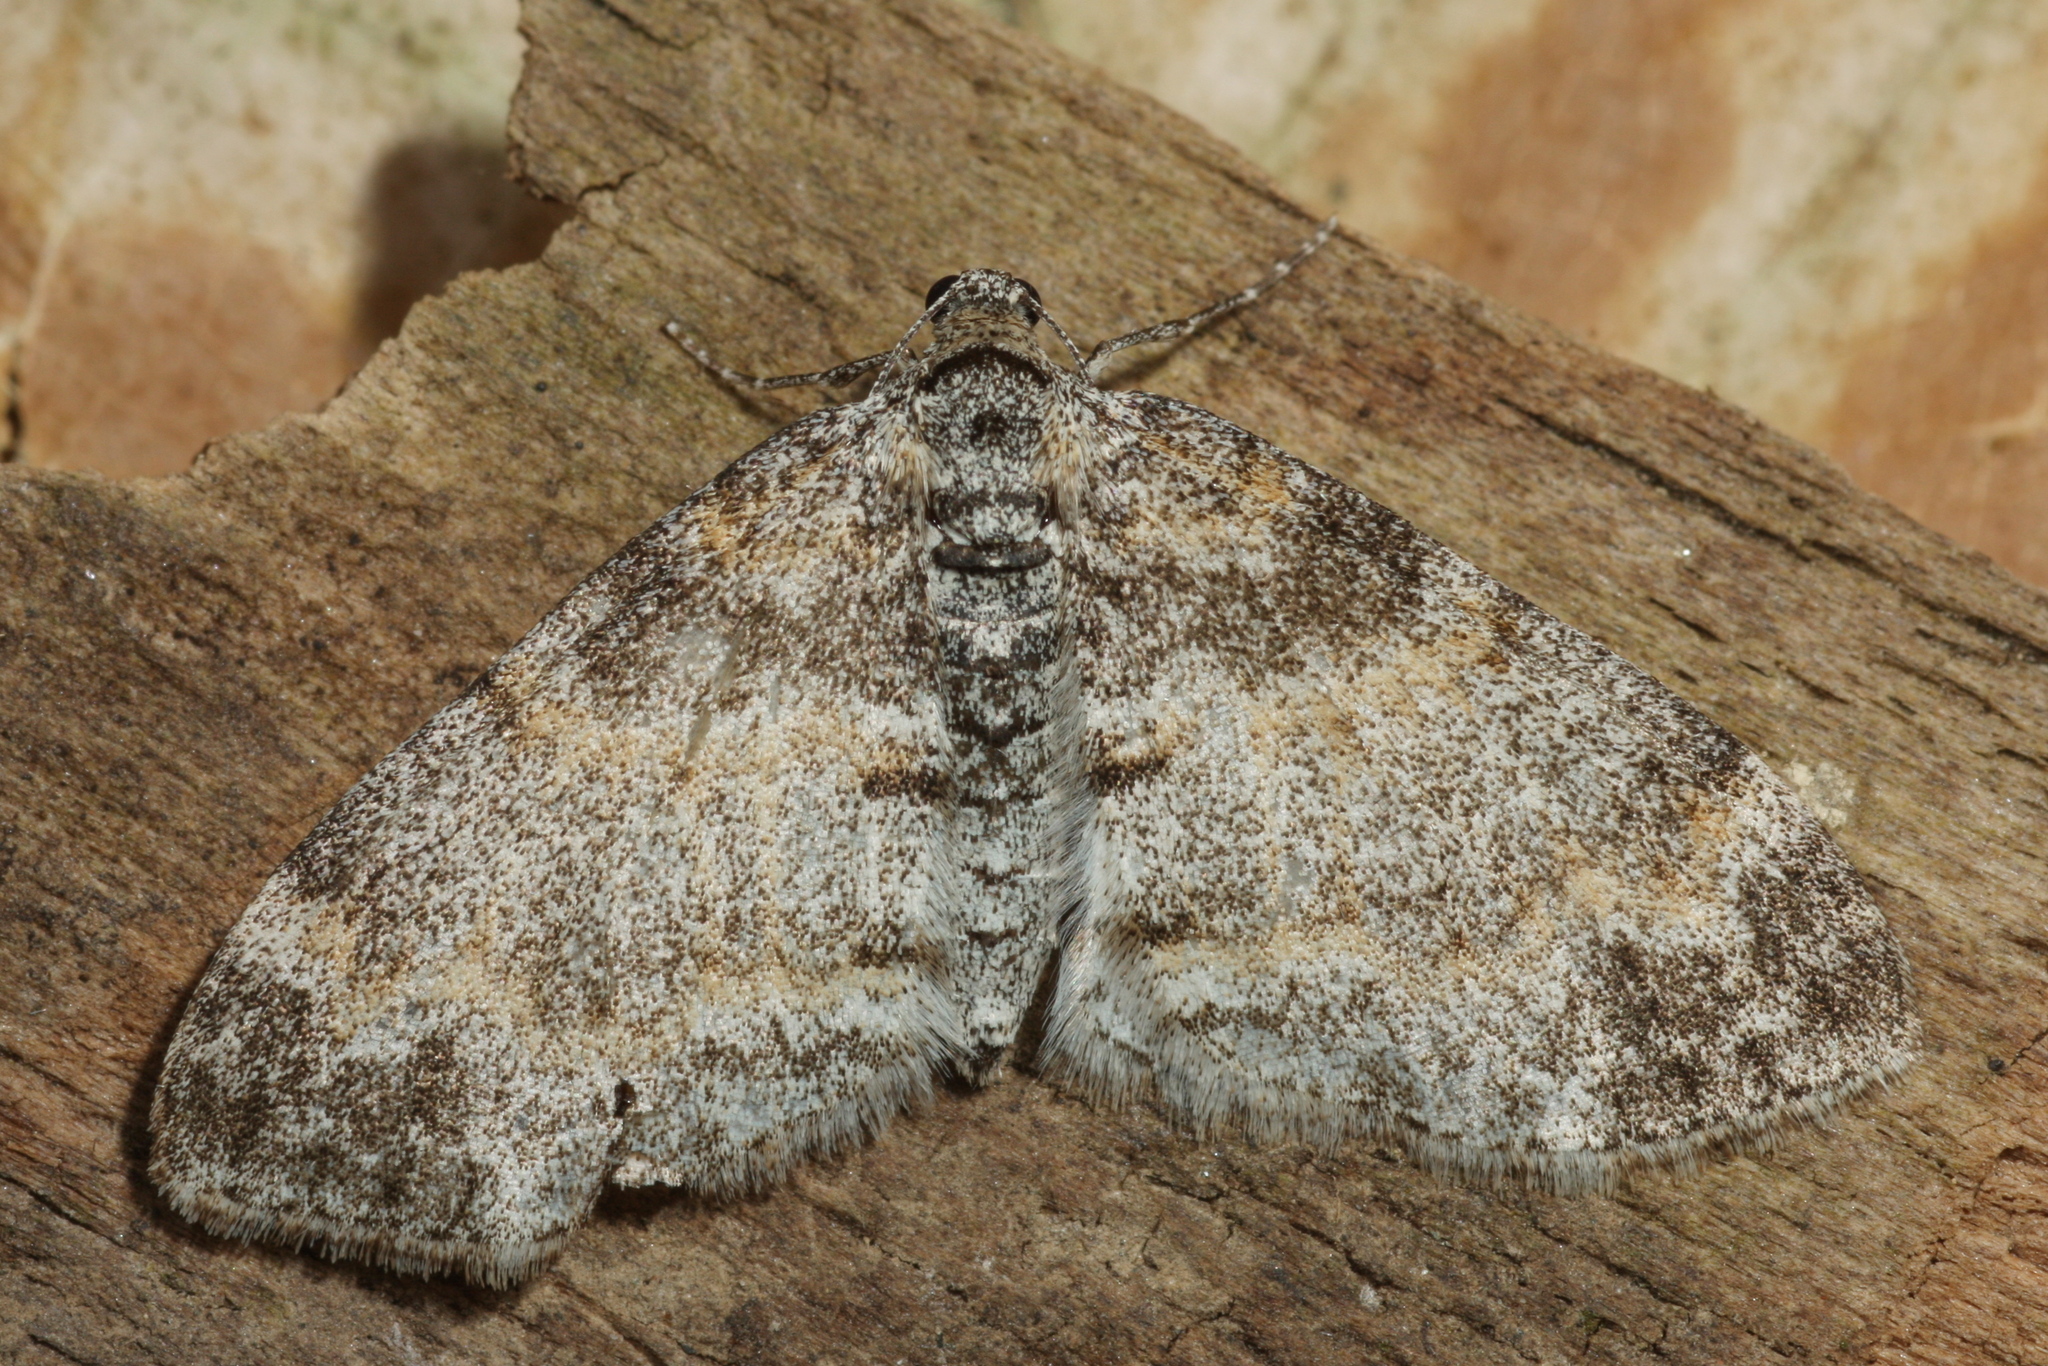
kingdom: Animalia
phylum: Arthropoda
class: Insecta
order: Lepidoptera
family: Geometridae
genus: Lobophora
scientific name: Lobophora halterata
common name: Seraphim
